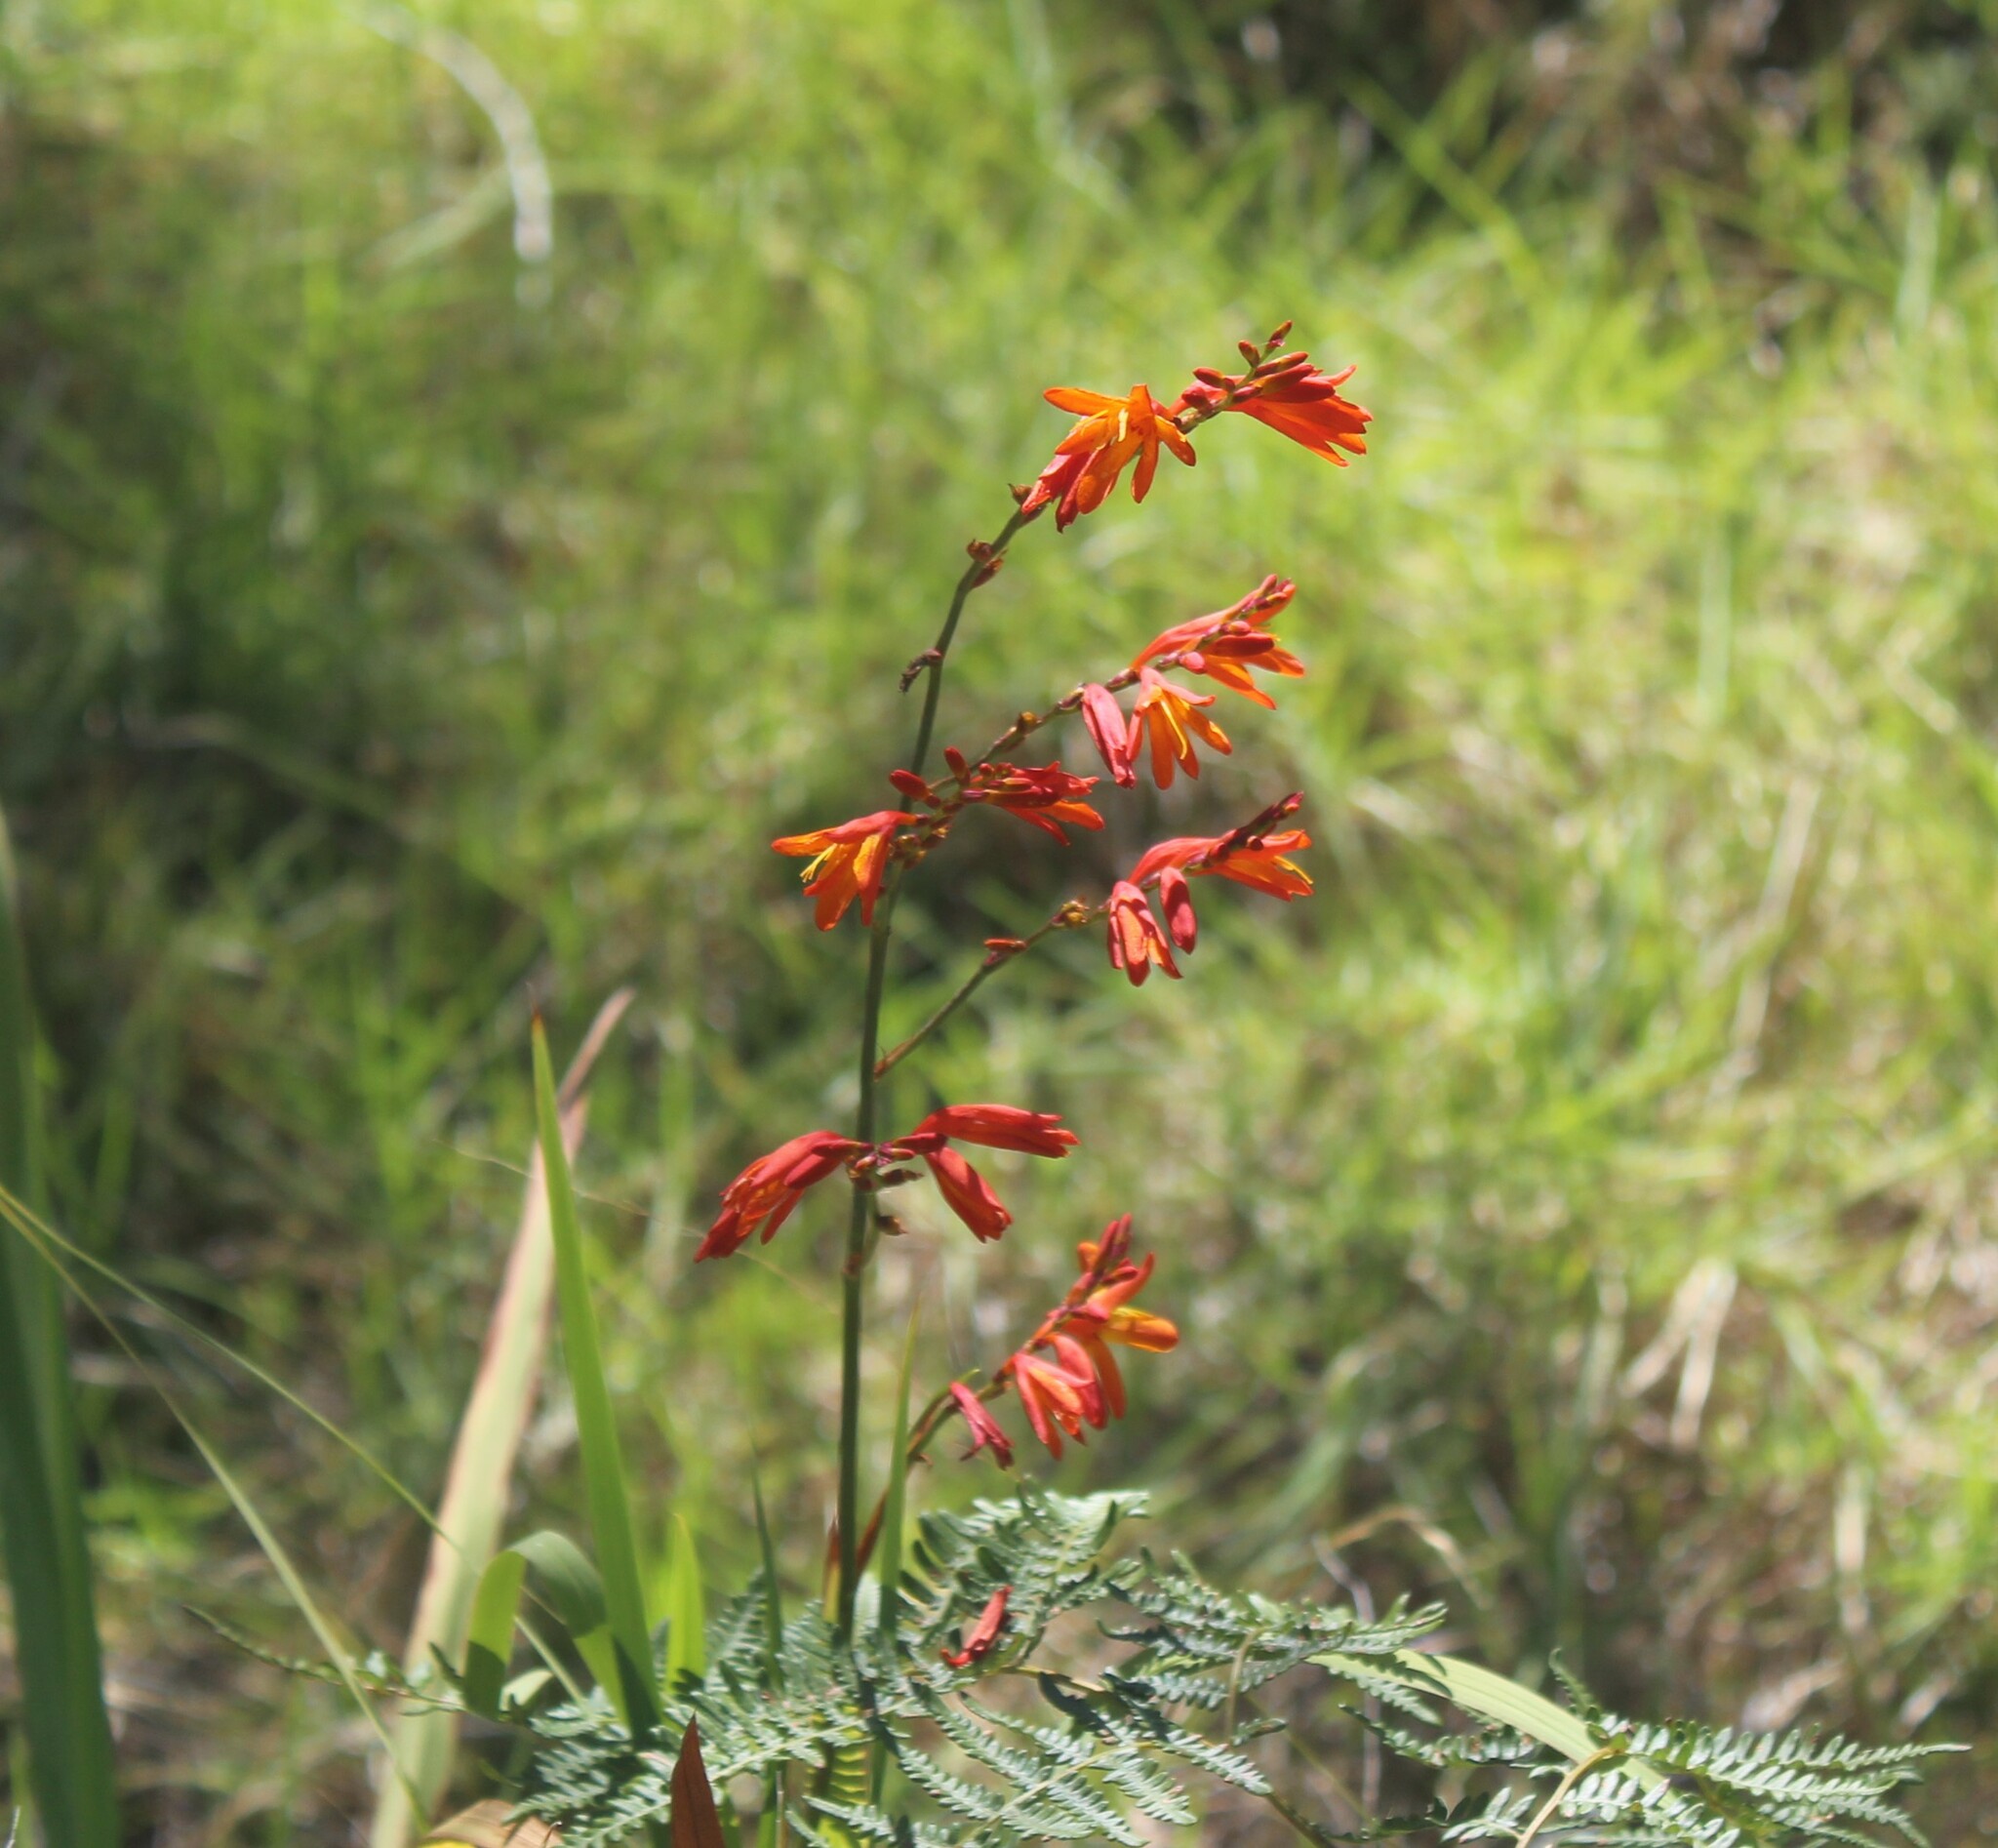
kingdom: Plantae
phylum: Tracheophyta
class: Liliopsida
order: Asparagales
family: Iridaceae
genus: Crocosmia
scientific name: Crocosmia crocosmiiflora
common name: Montbretia
